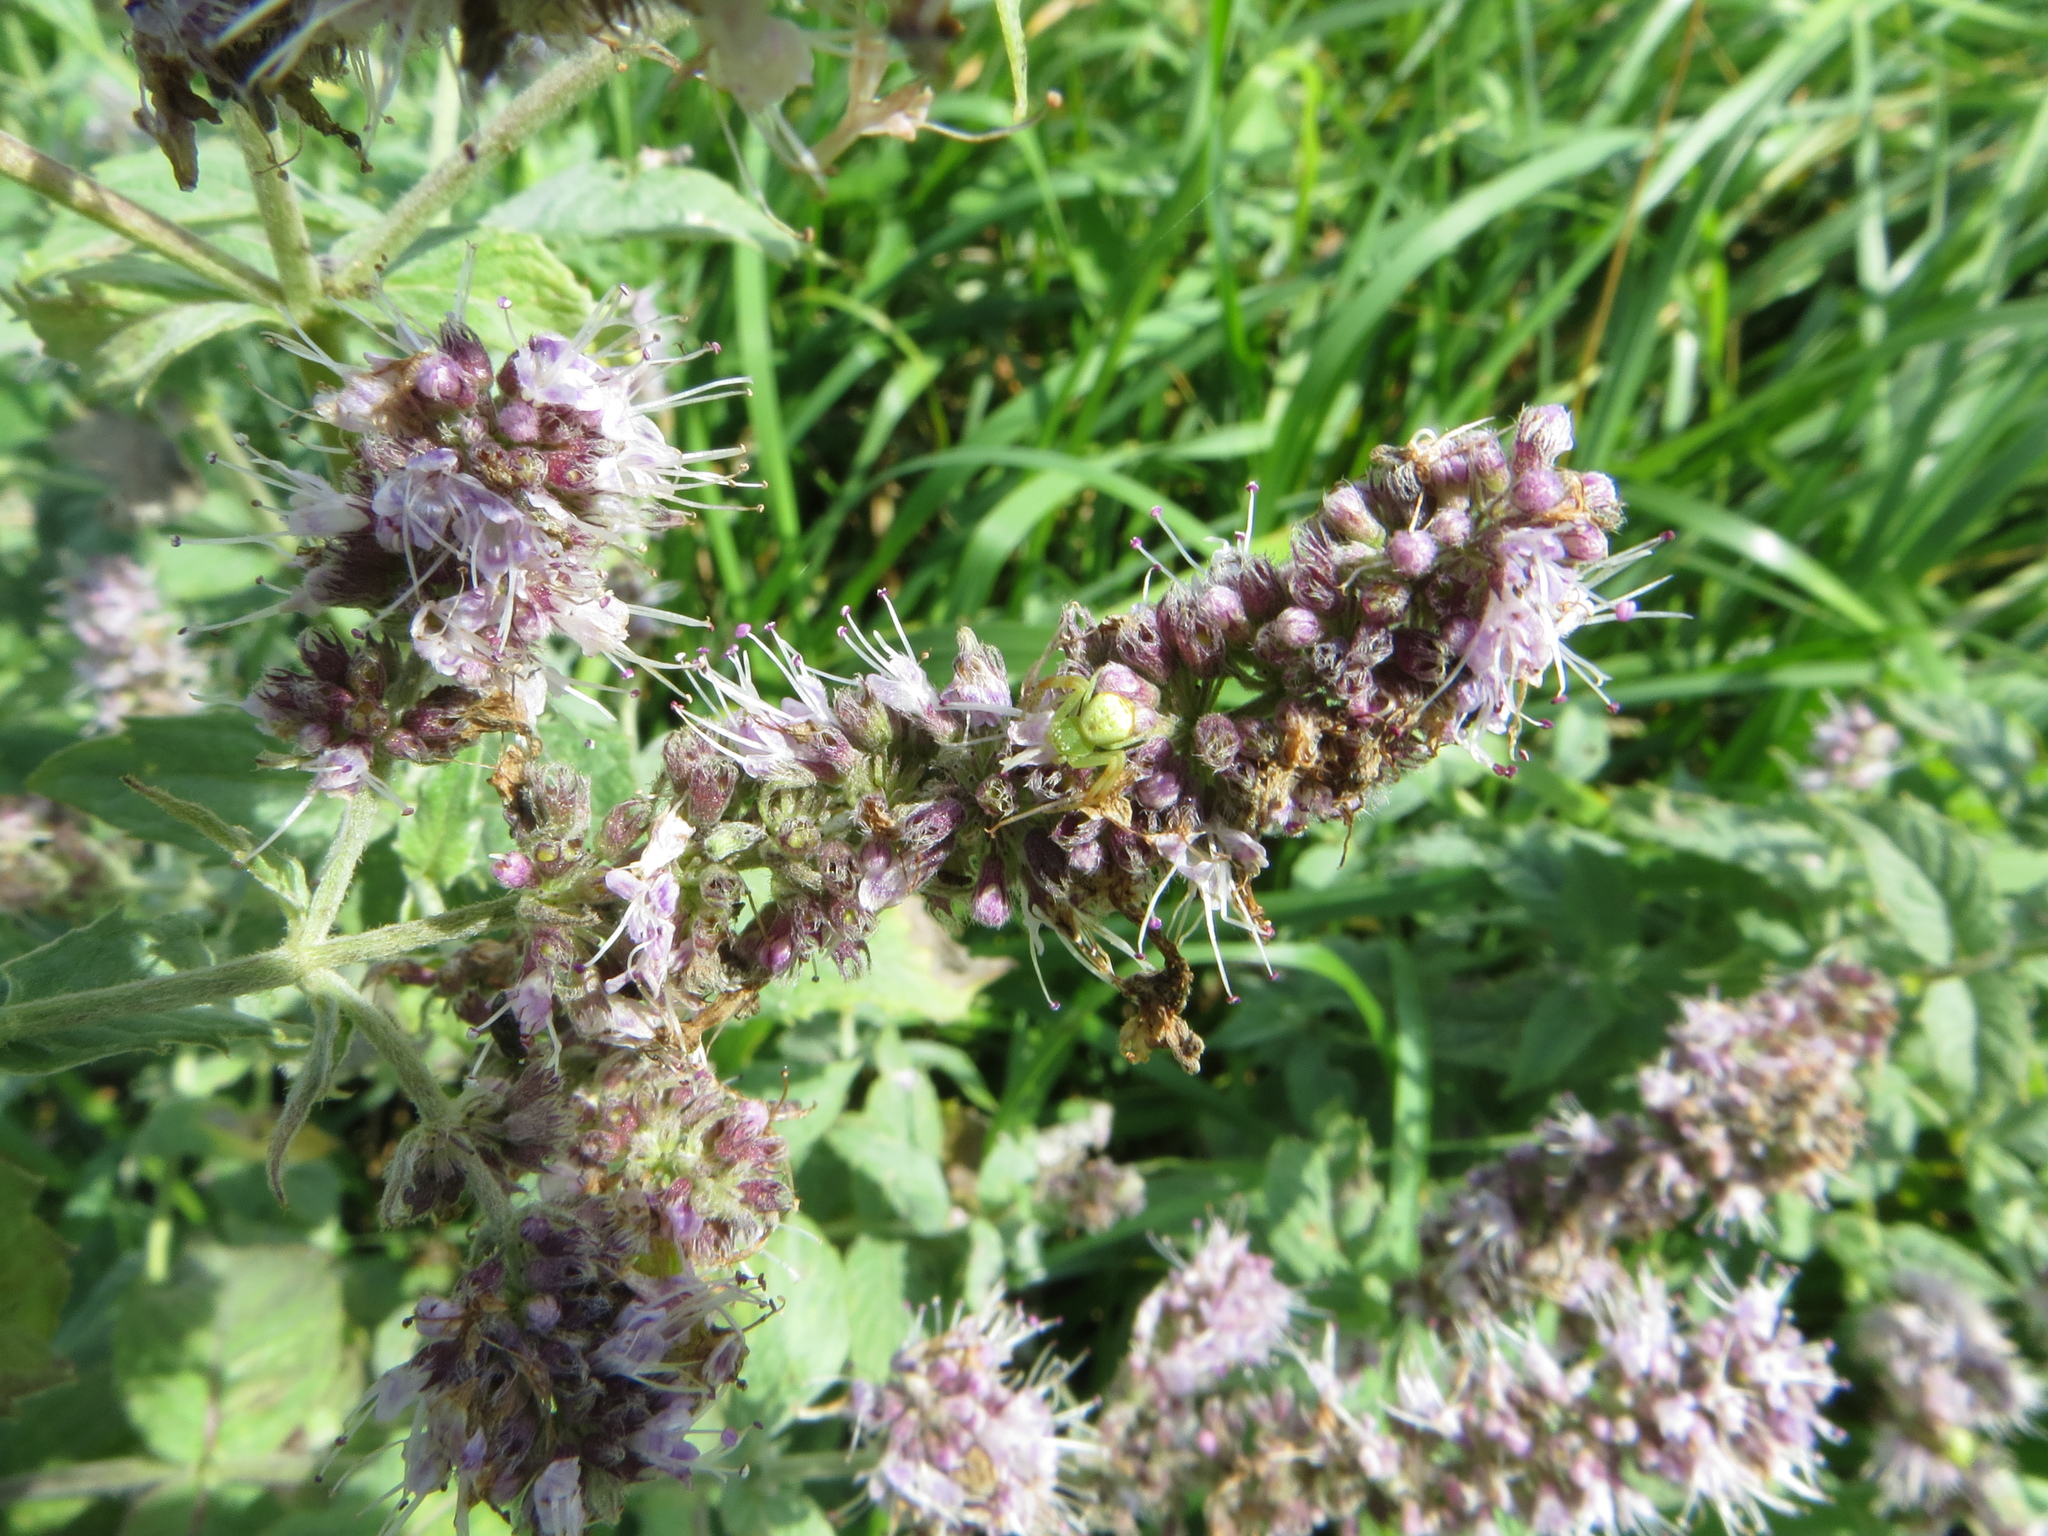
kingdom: Animalia
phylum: Arthropoda
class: Arachnida
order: Araneae
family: Thomisidae
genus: Ebrechtella
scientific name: Ebrechtella tricuspidata
